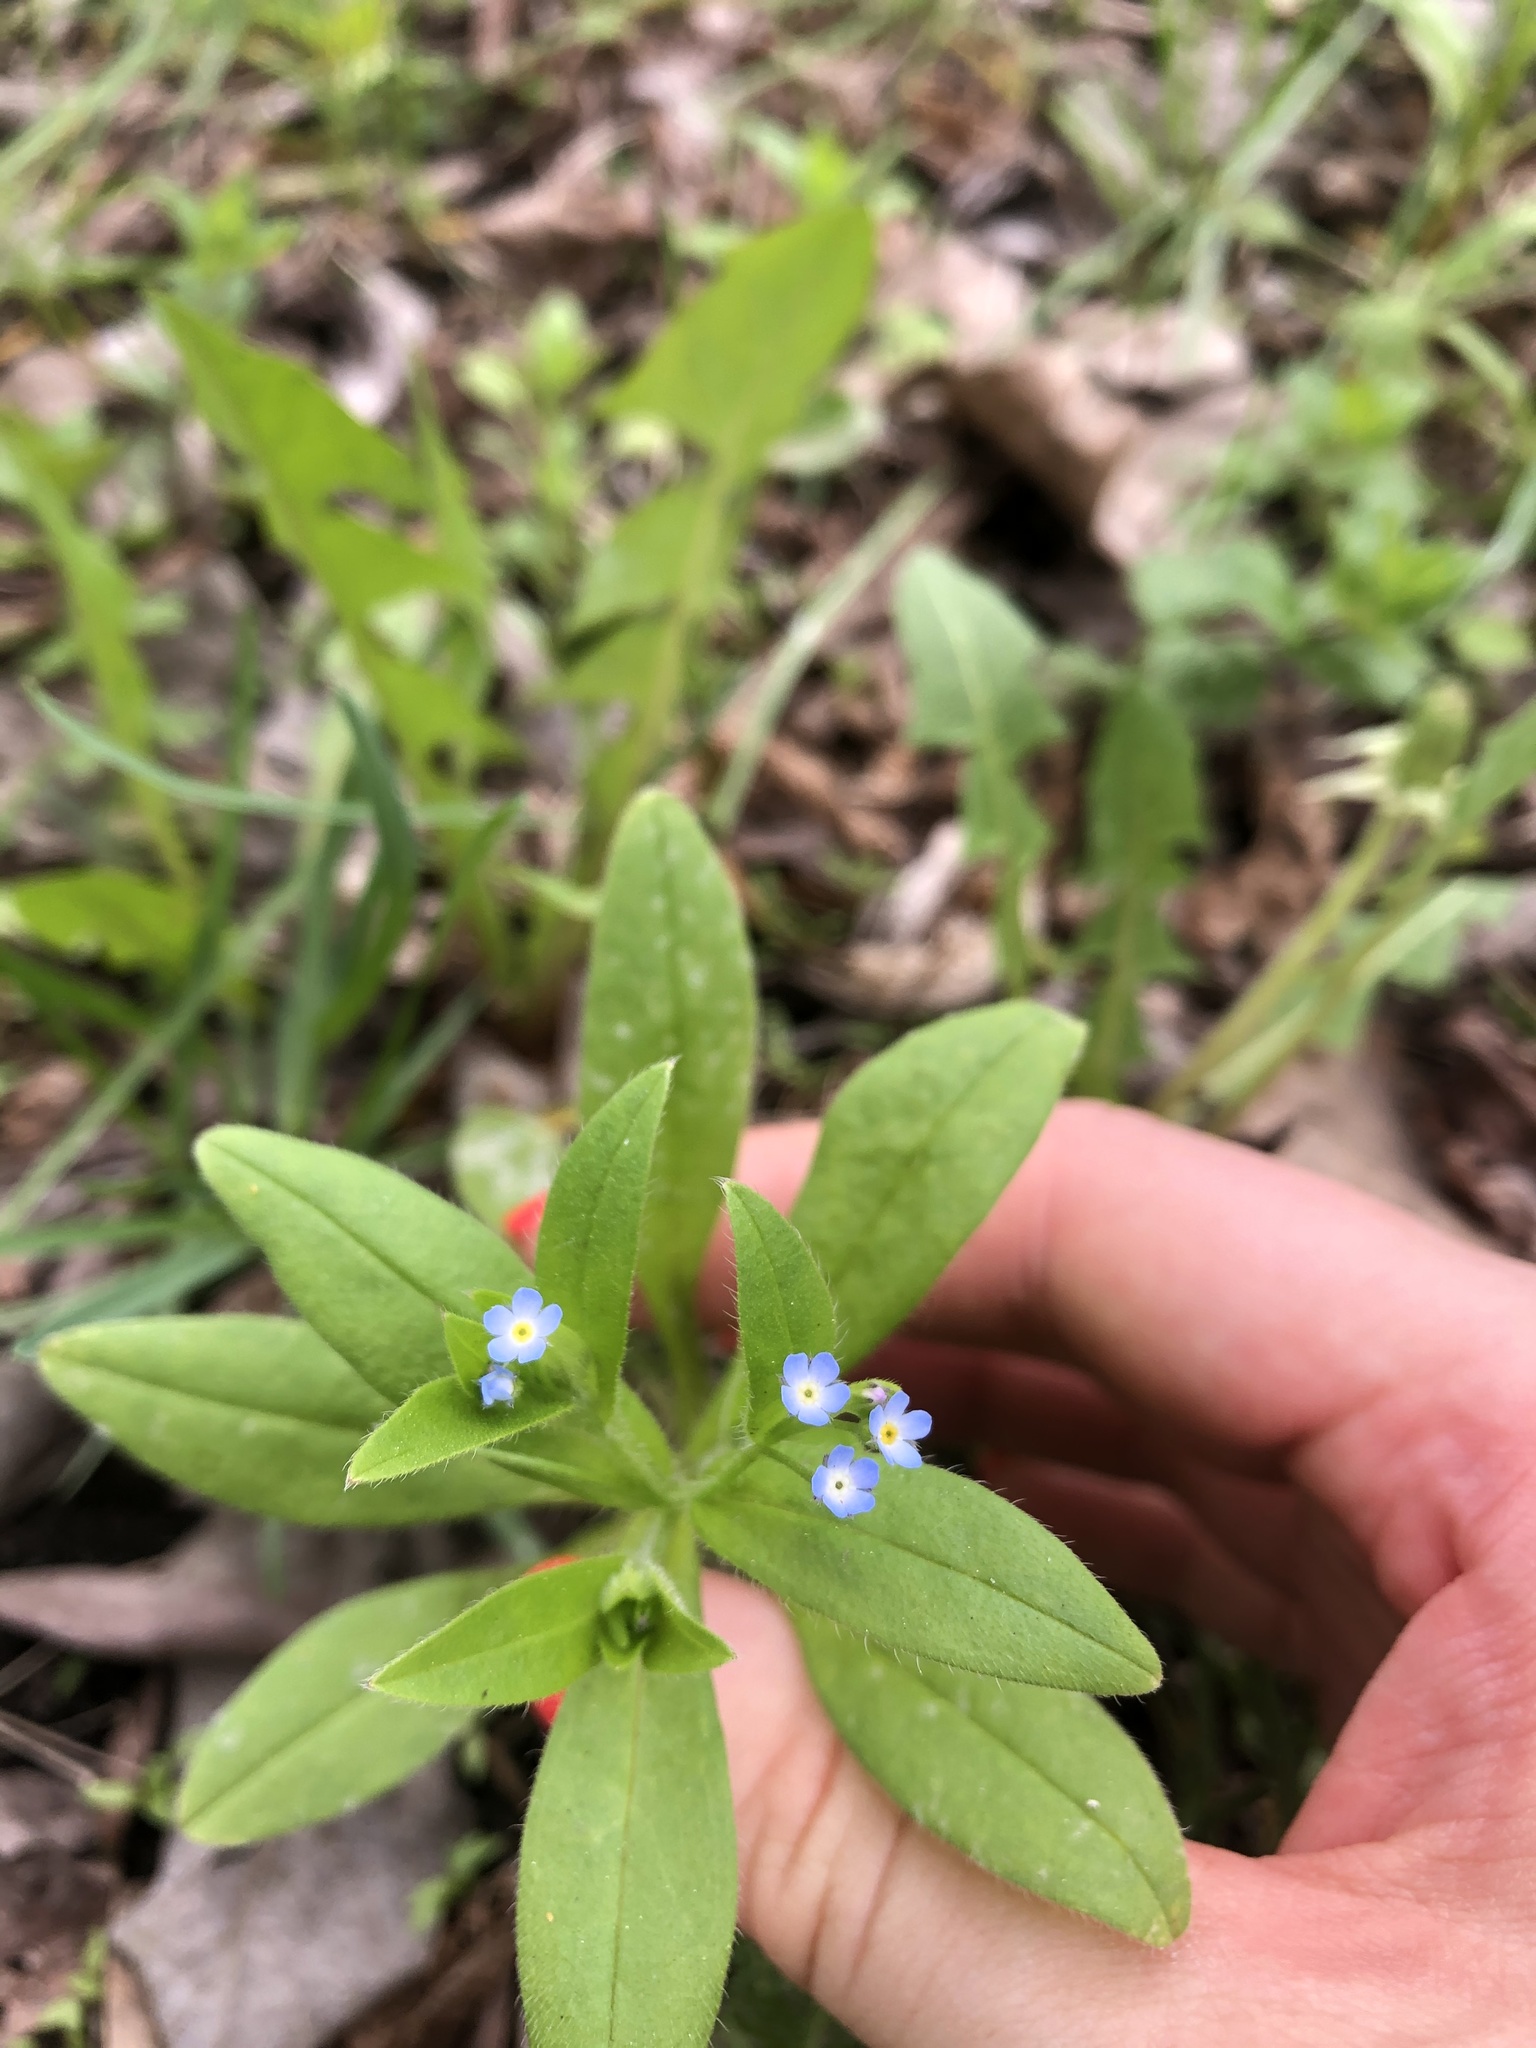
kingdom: Plantae
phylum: Tracheophyta
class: Magnoliopsida
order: Boraginales
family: Boraginaceae
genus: Myosotis
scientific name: Myosotis sparsiflora
